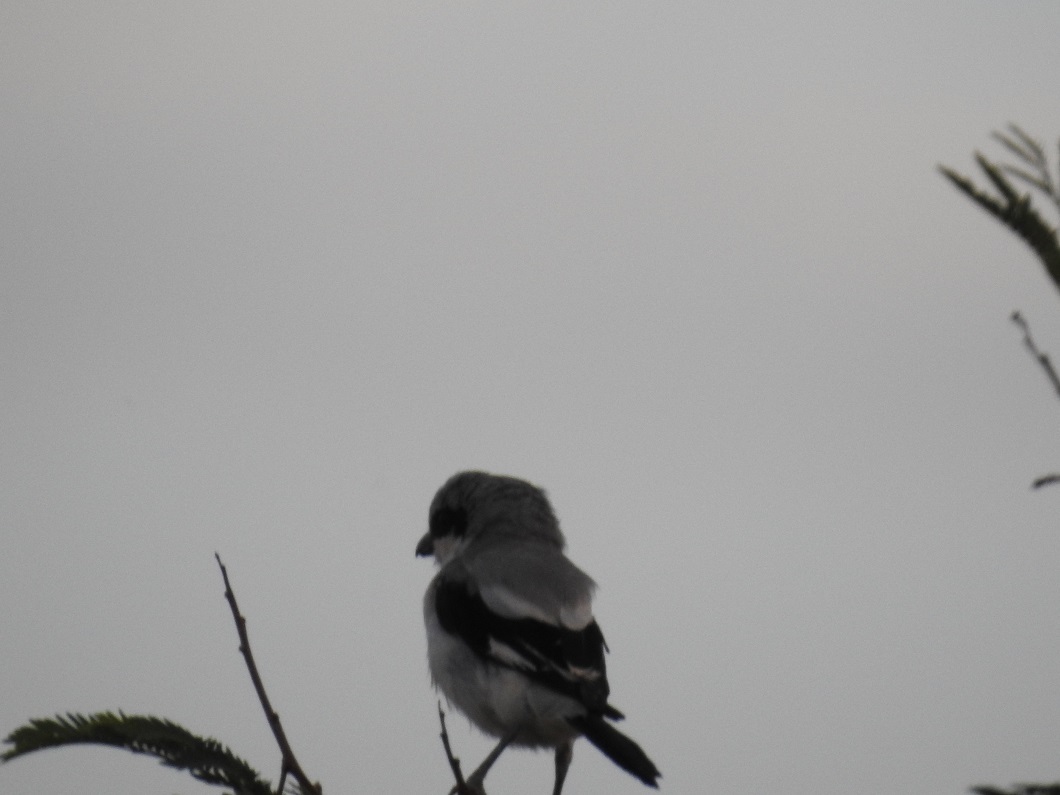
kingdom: Animalia
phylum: Chordata
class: Aves
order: Passeriformes
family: Laniidae
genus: Lanius
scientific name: Lanius excubitor
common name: Great grey shrike
